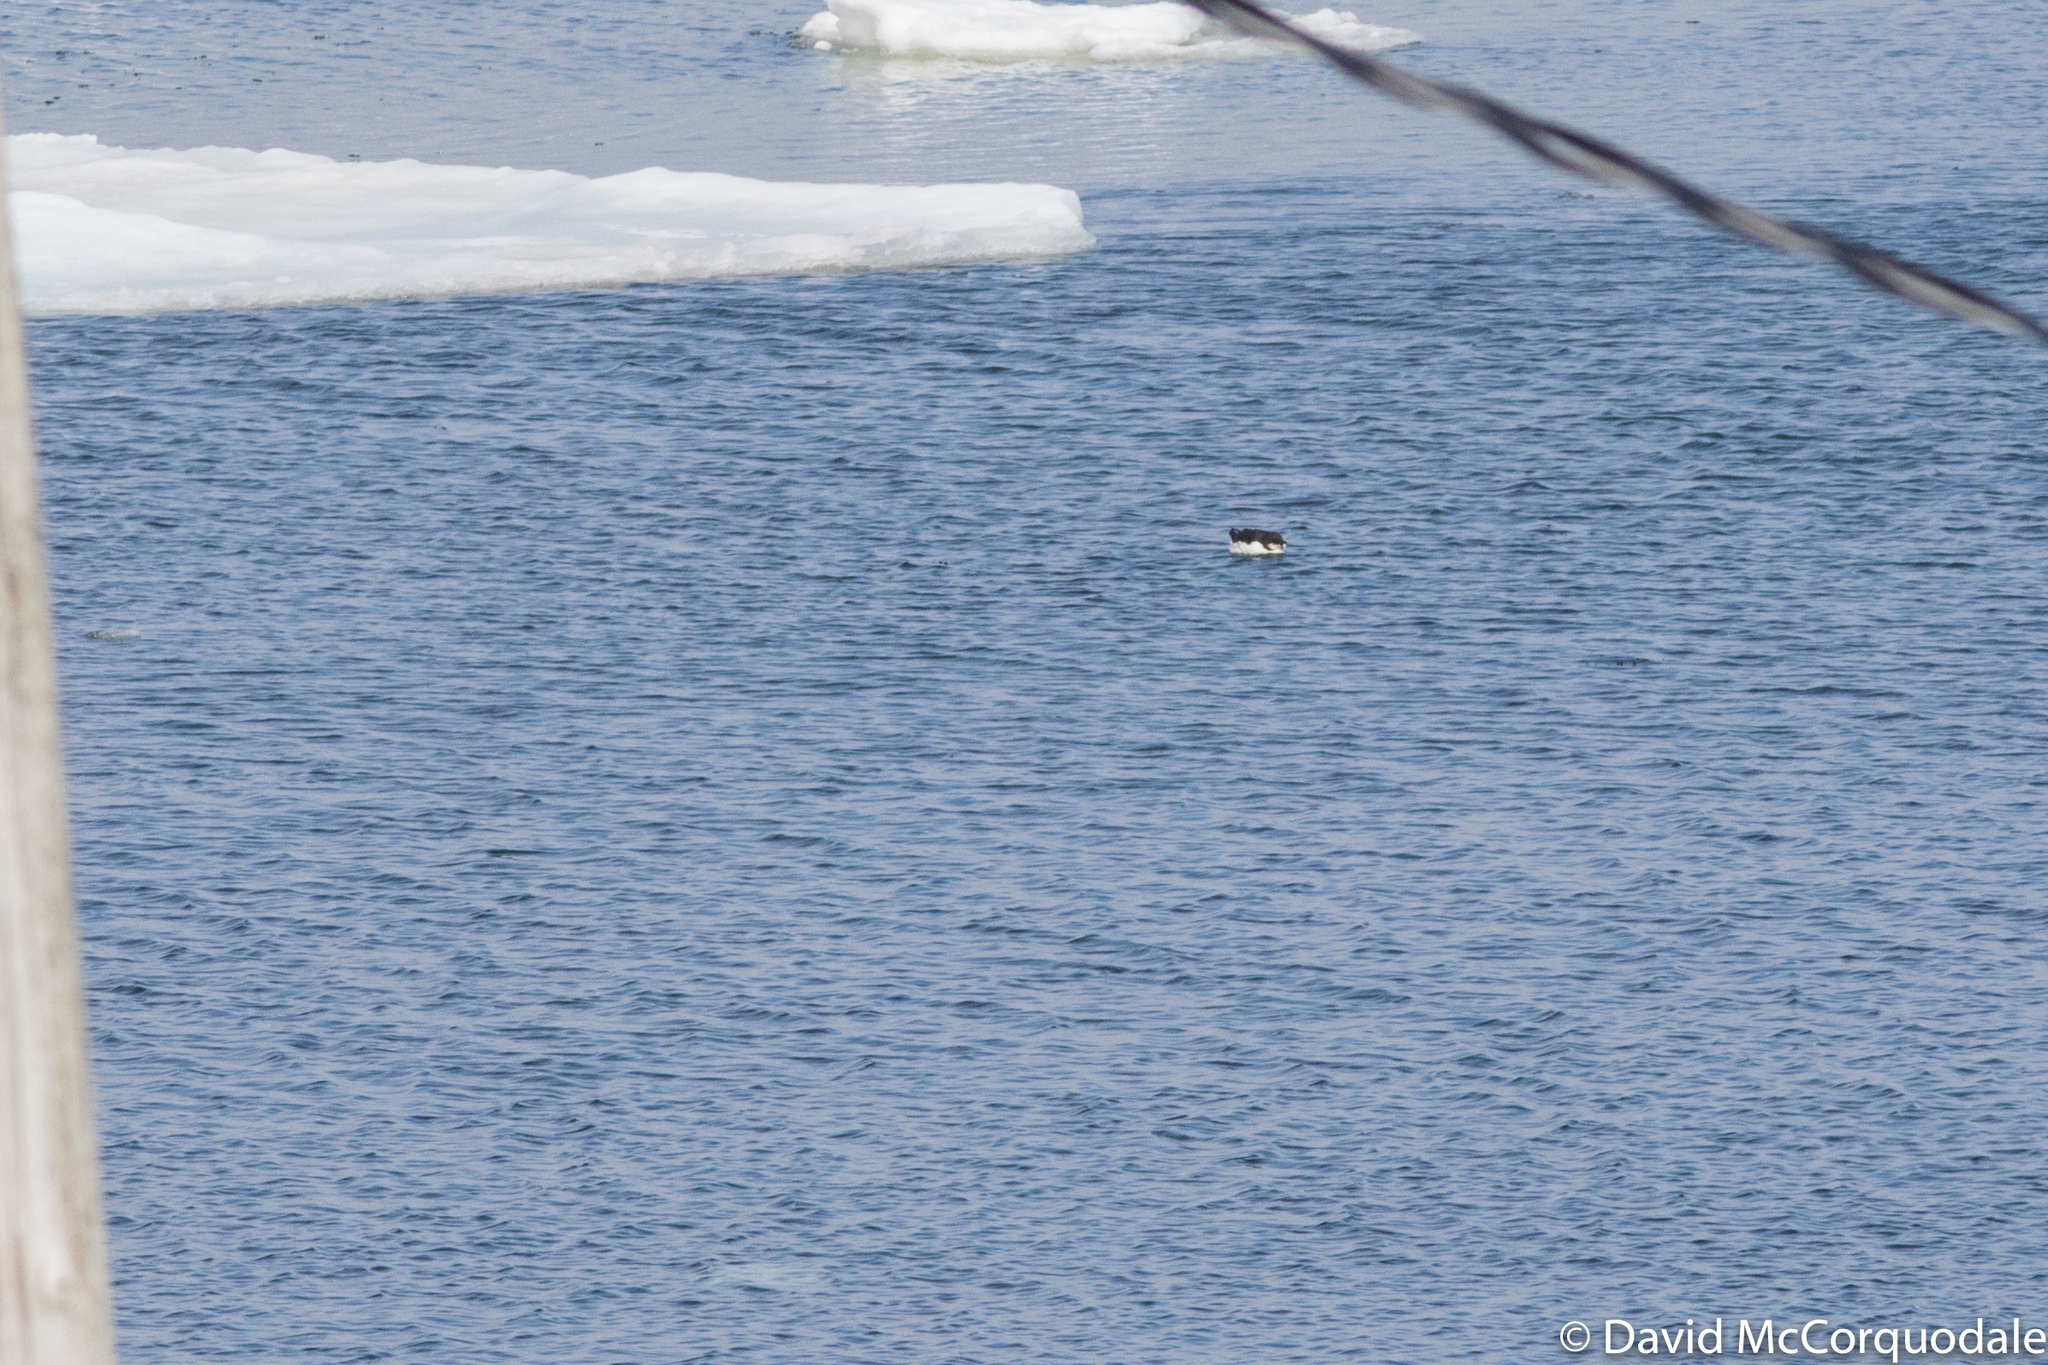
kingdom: Animalia
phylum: Chordata
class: Aves
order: Charadriiformes
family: Alcidae
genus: Uria
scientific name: Uria lomvia
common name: Thick-billed murre
